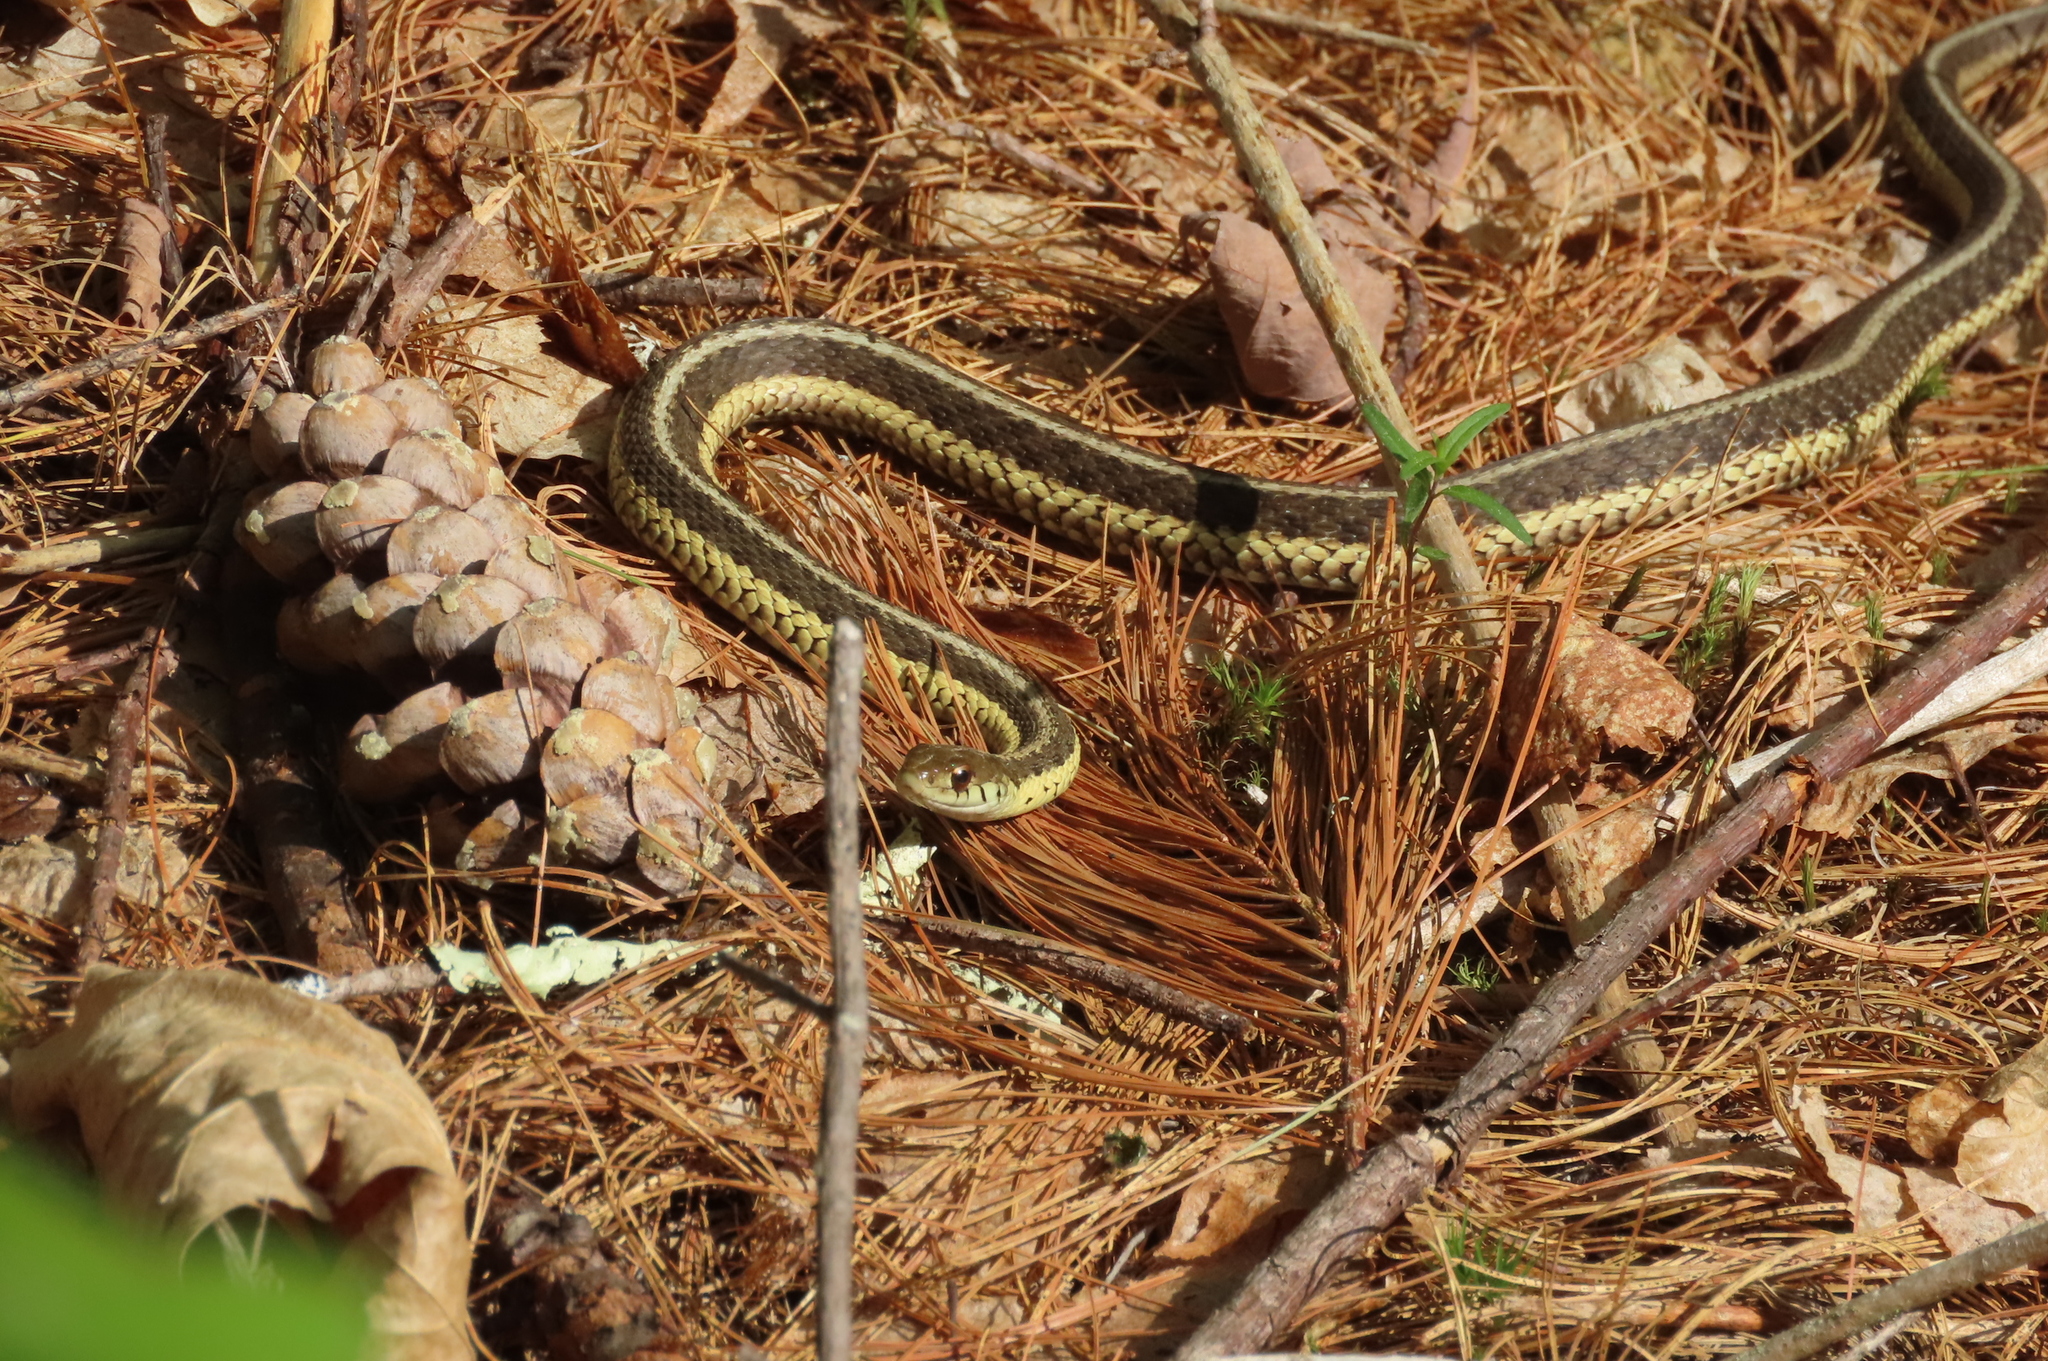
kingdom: Animalia
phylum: Chordata
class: Squamata
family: Colubridae
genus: Thamnophis
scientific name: Thamnophis sirtalis
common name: Common garter snake
